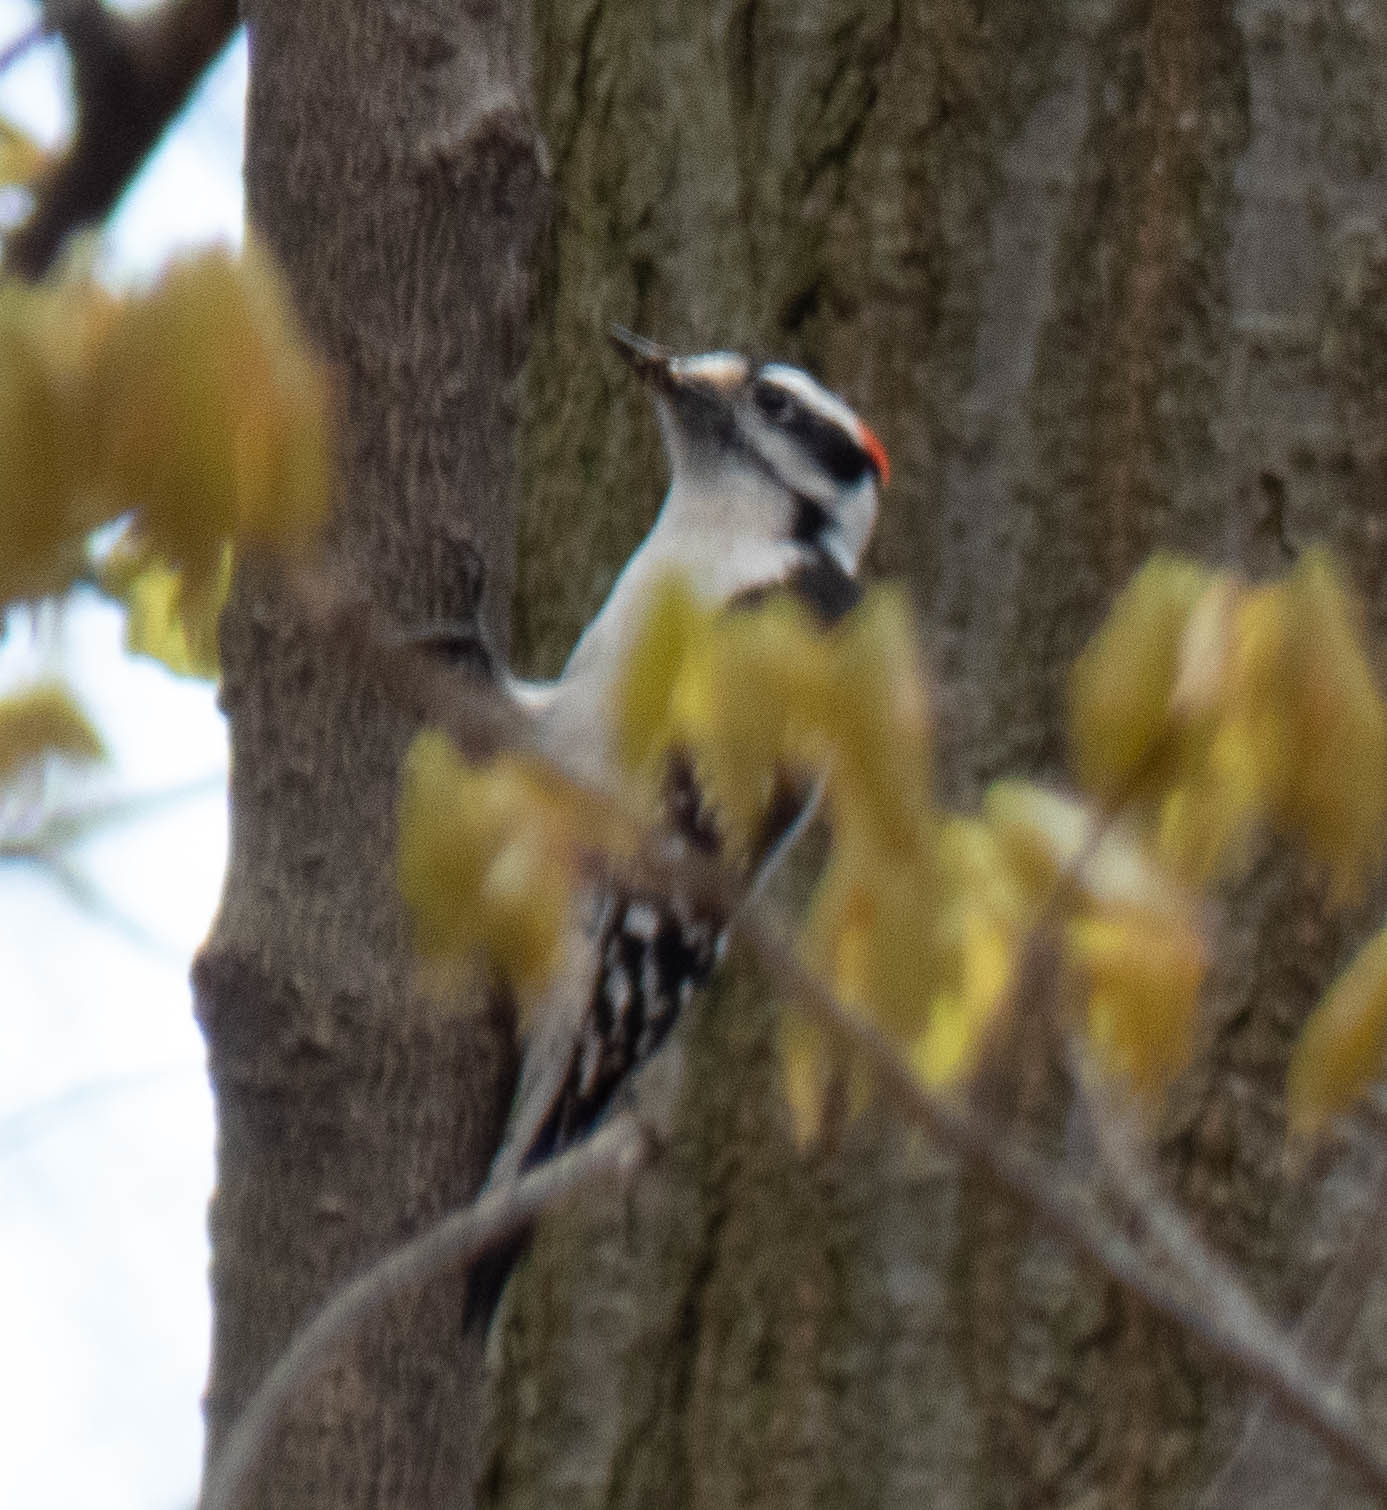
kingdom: Animalia
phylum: Chordata
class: Aves
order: Piciformes
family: Picidae
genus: Dryobates
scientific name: Dryobates pubescens
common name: Downy woodpecker
